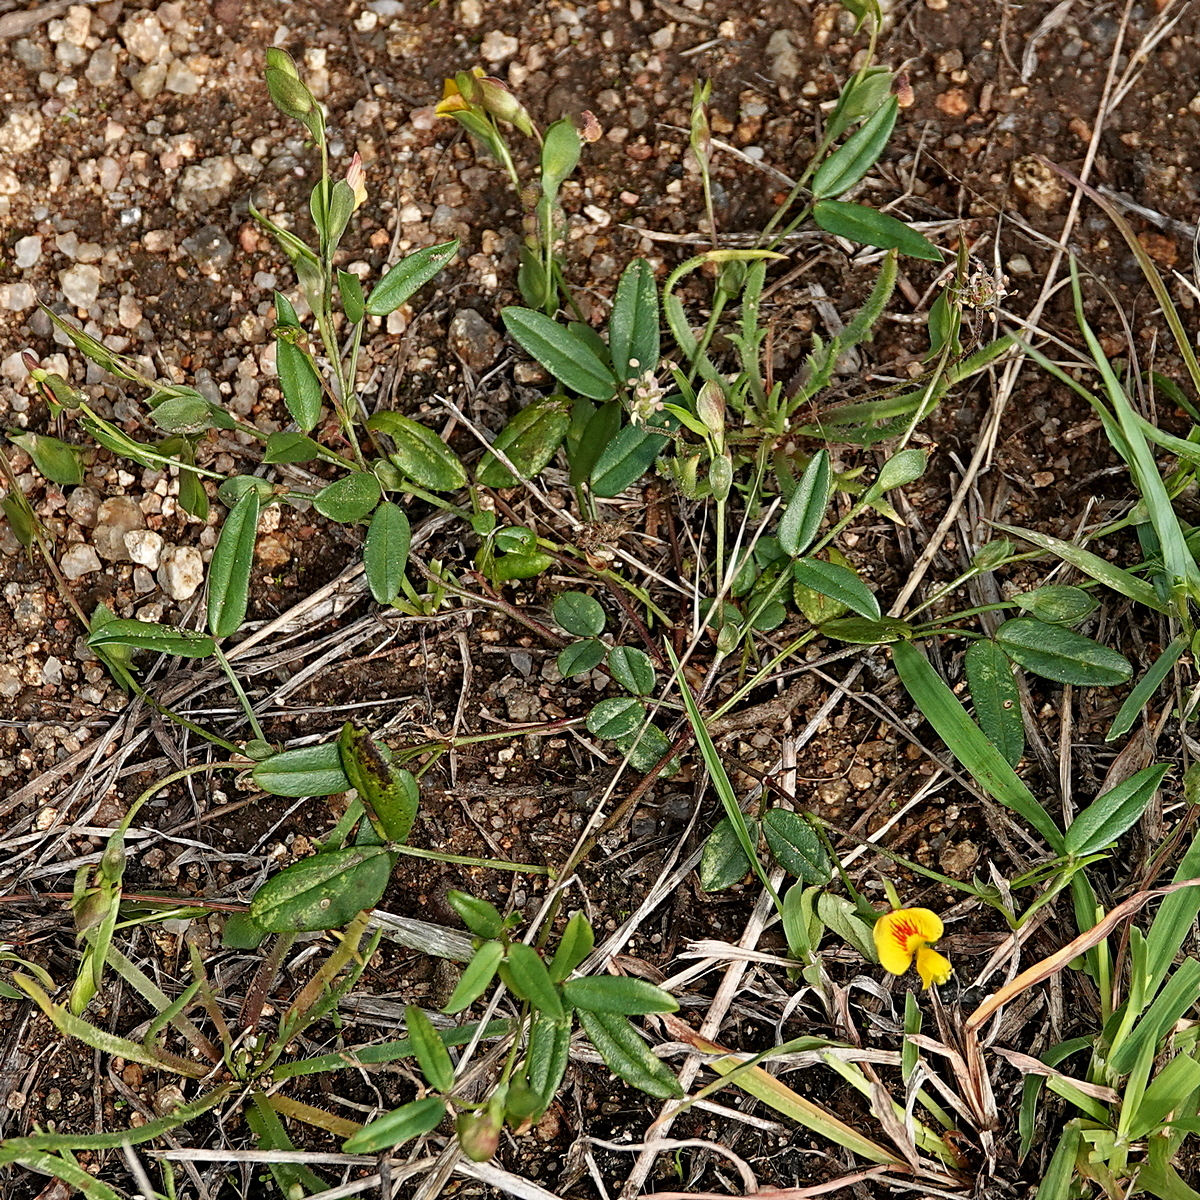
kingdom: Plantae
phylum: Tracheophyta
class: Magnoliopsida
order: Fabales
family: Fabaceae
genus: Zornia
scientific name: Zornia dyctiocarpa
